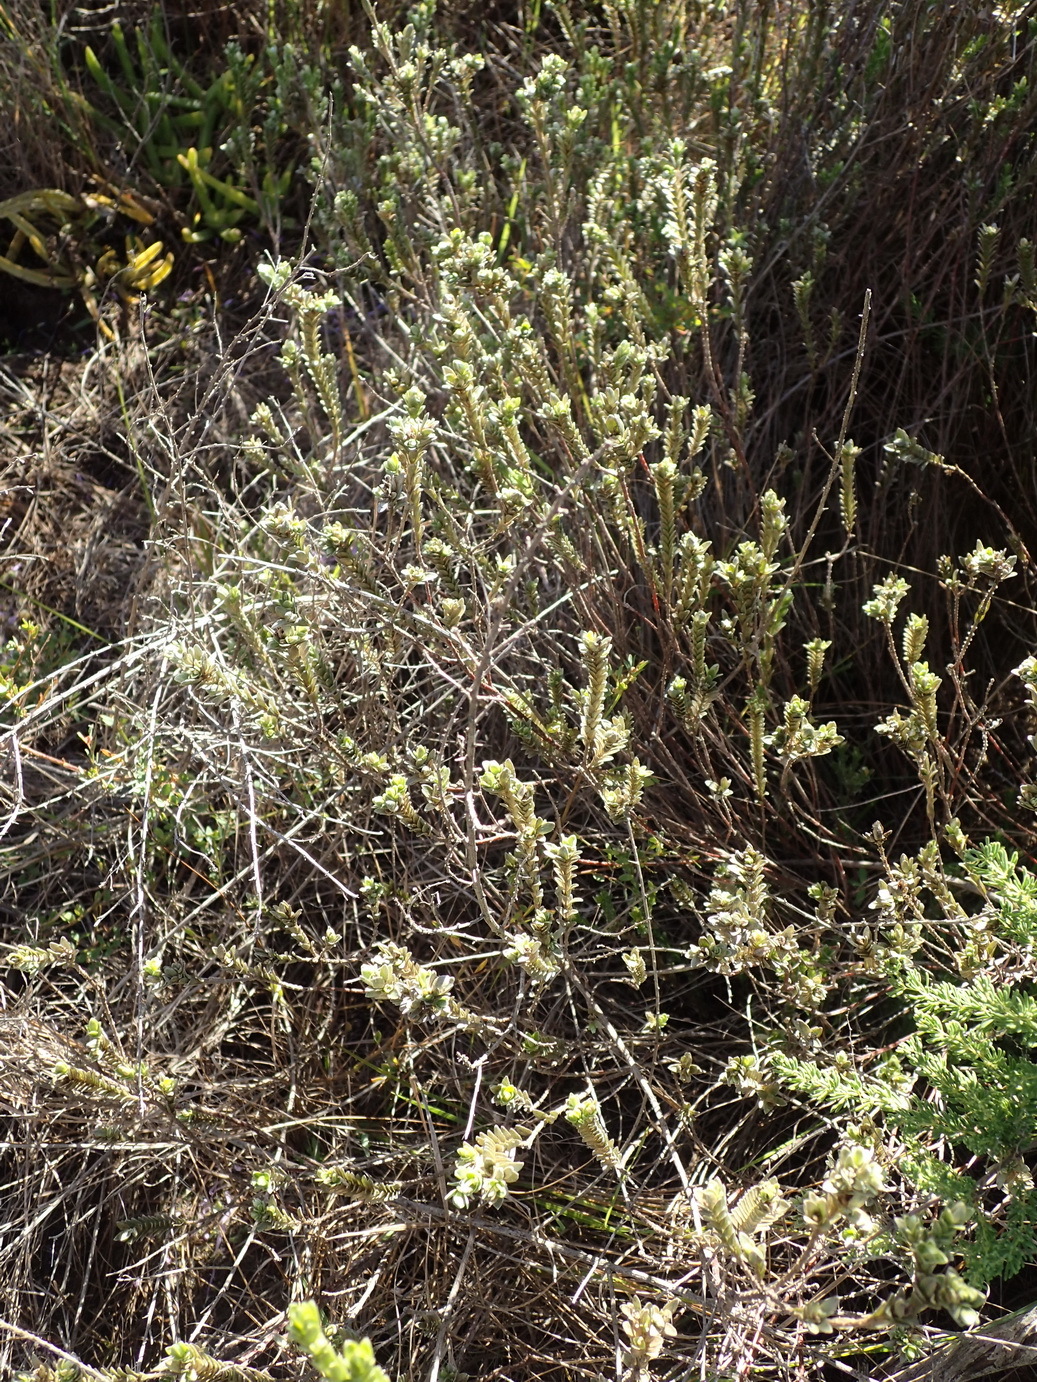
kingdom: Plantae
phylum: Tracheophyta
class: Magnoliopsida
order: Malvales
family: Thymelaeaceae
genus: Gnidia
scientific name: Gnidia chrysophylla
